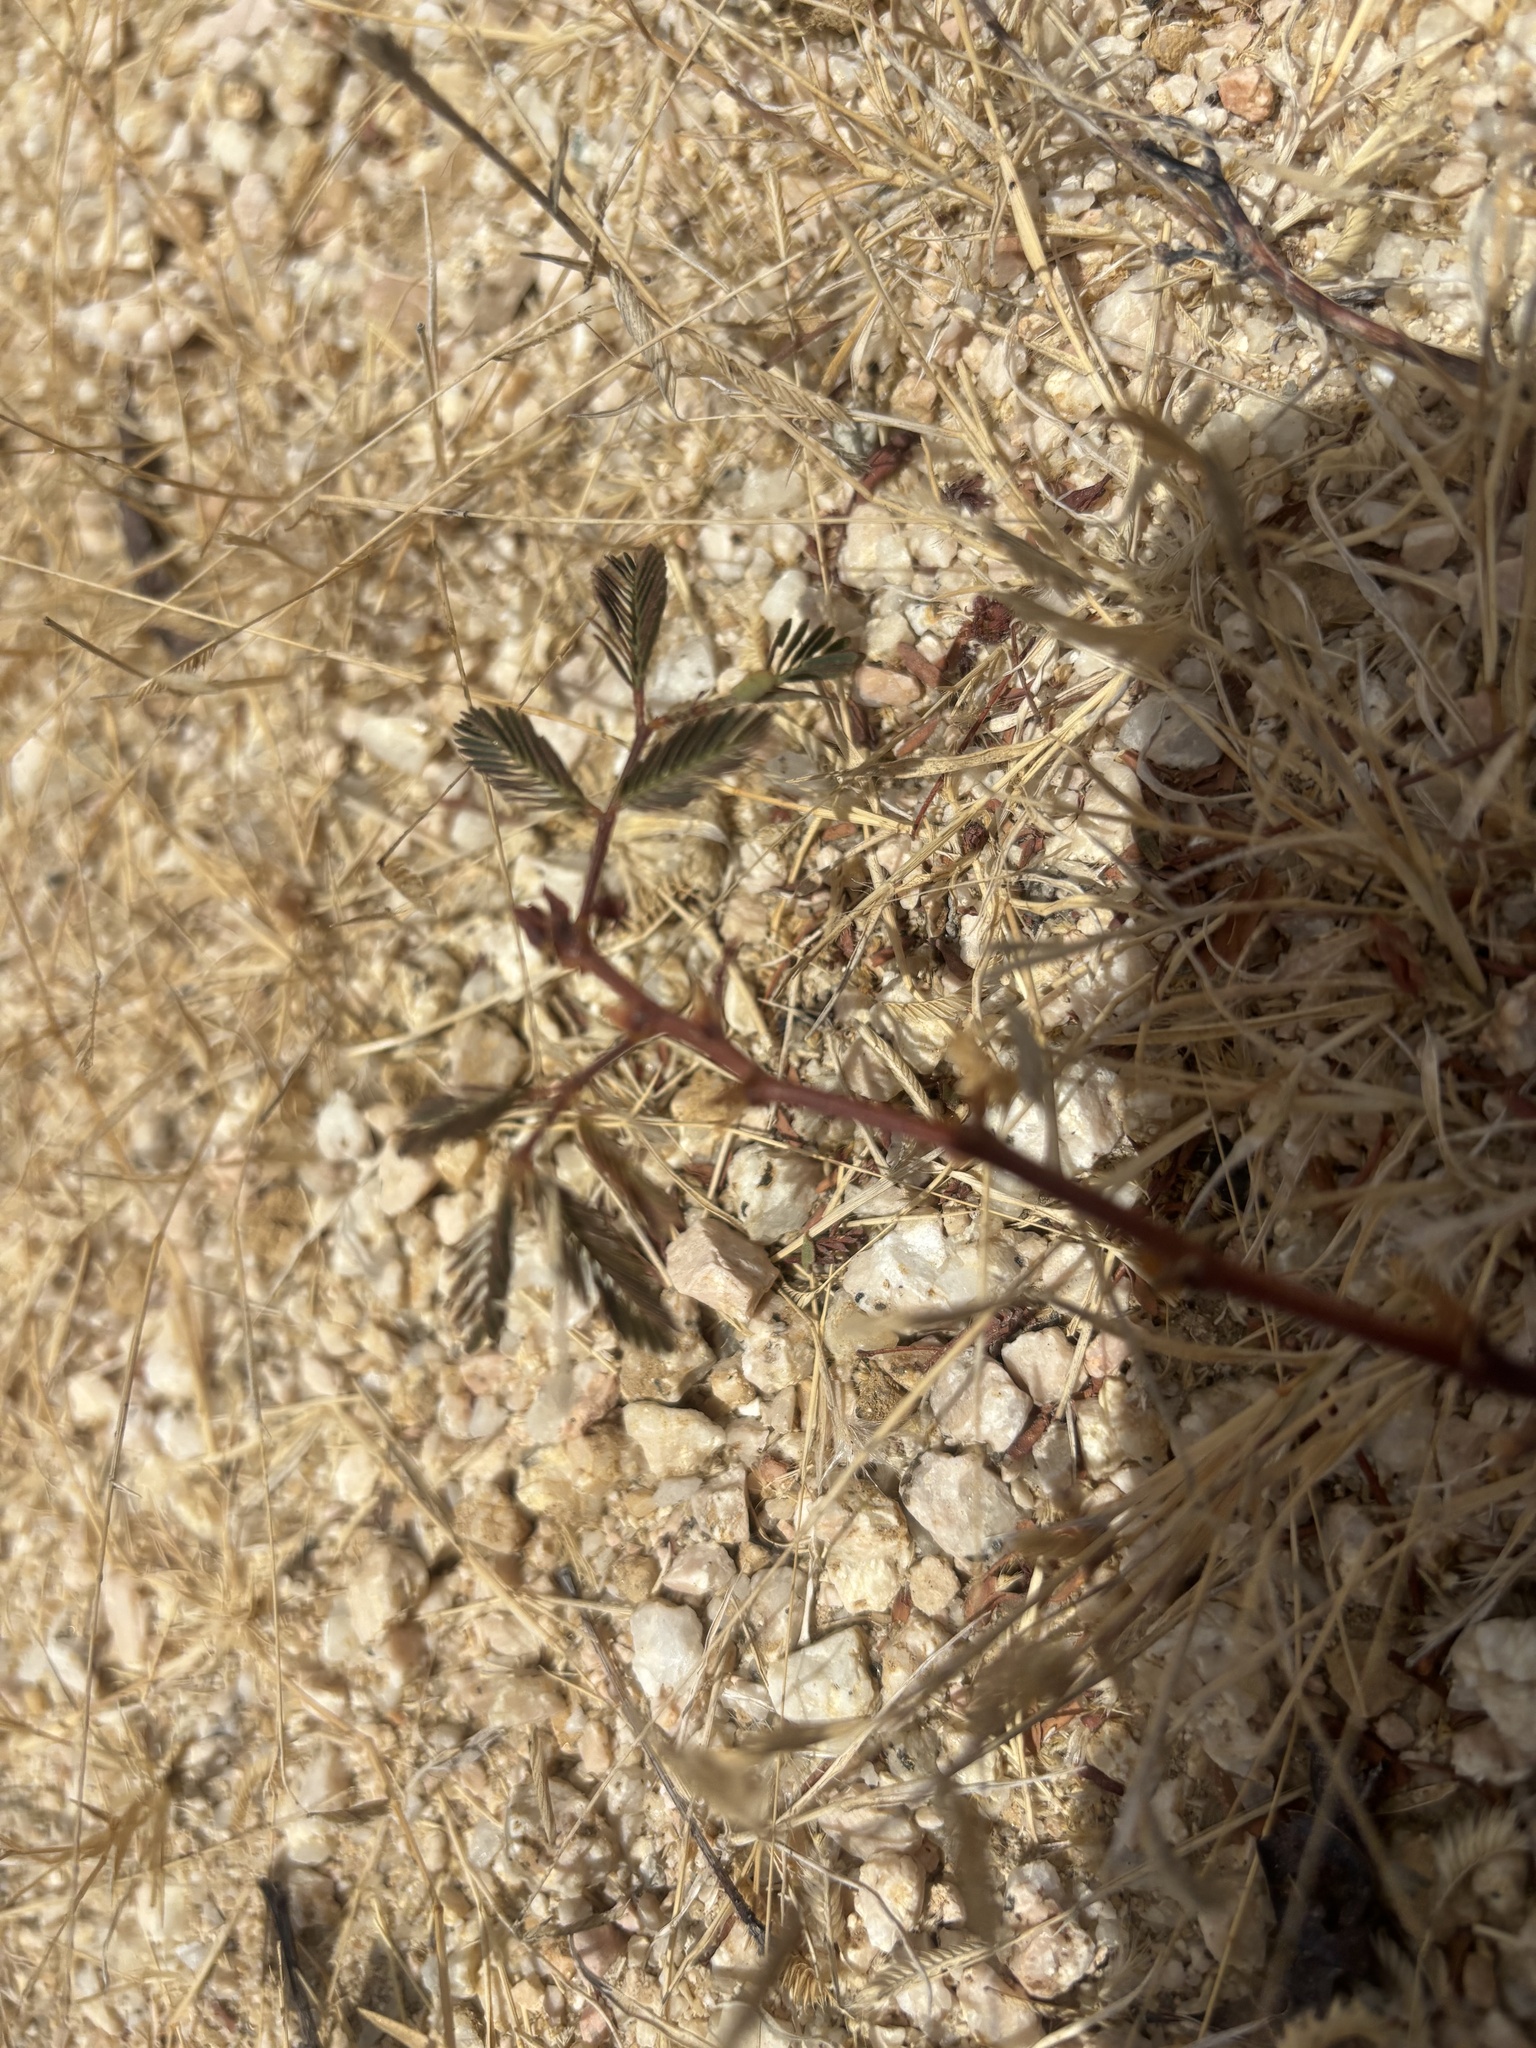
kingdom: Plantae
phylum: Tracheophyta
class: Magnoliopsida
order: Fabales
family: Fabaceae
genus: Neptunia
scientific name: Neptunia plena
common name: Dead and awake
